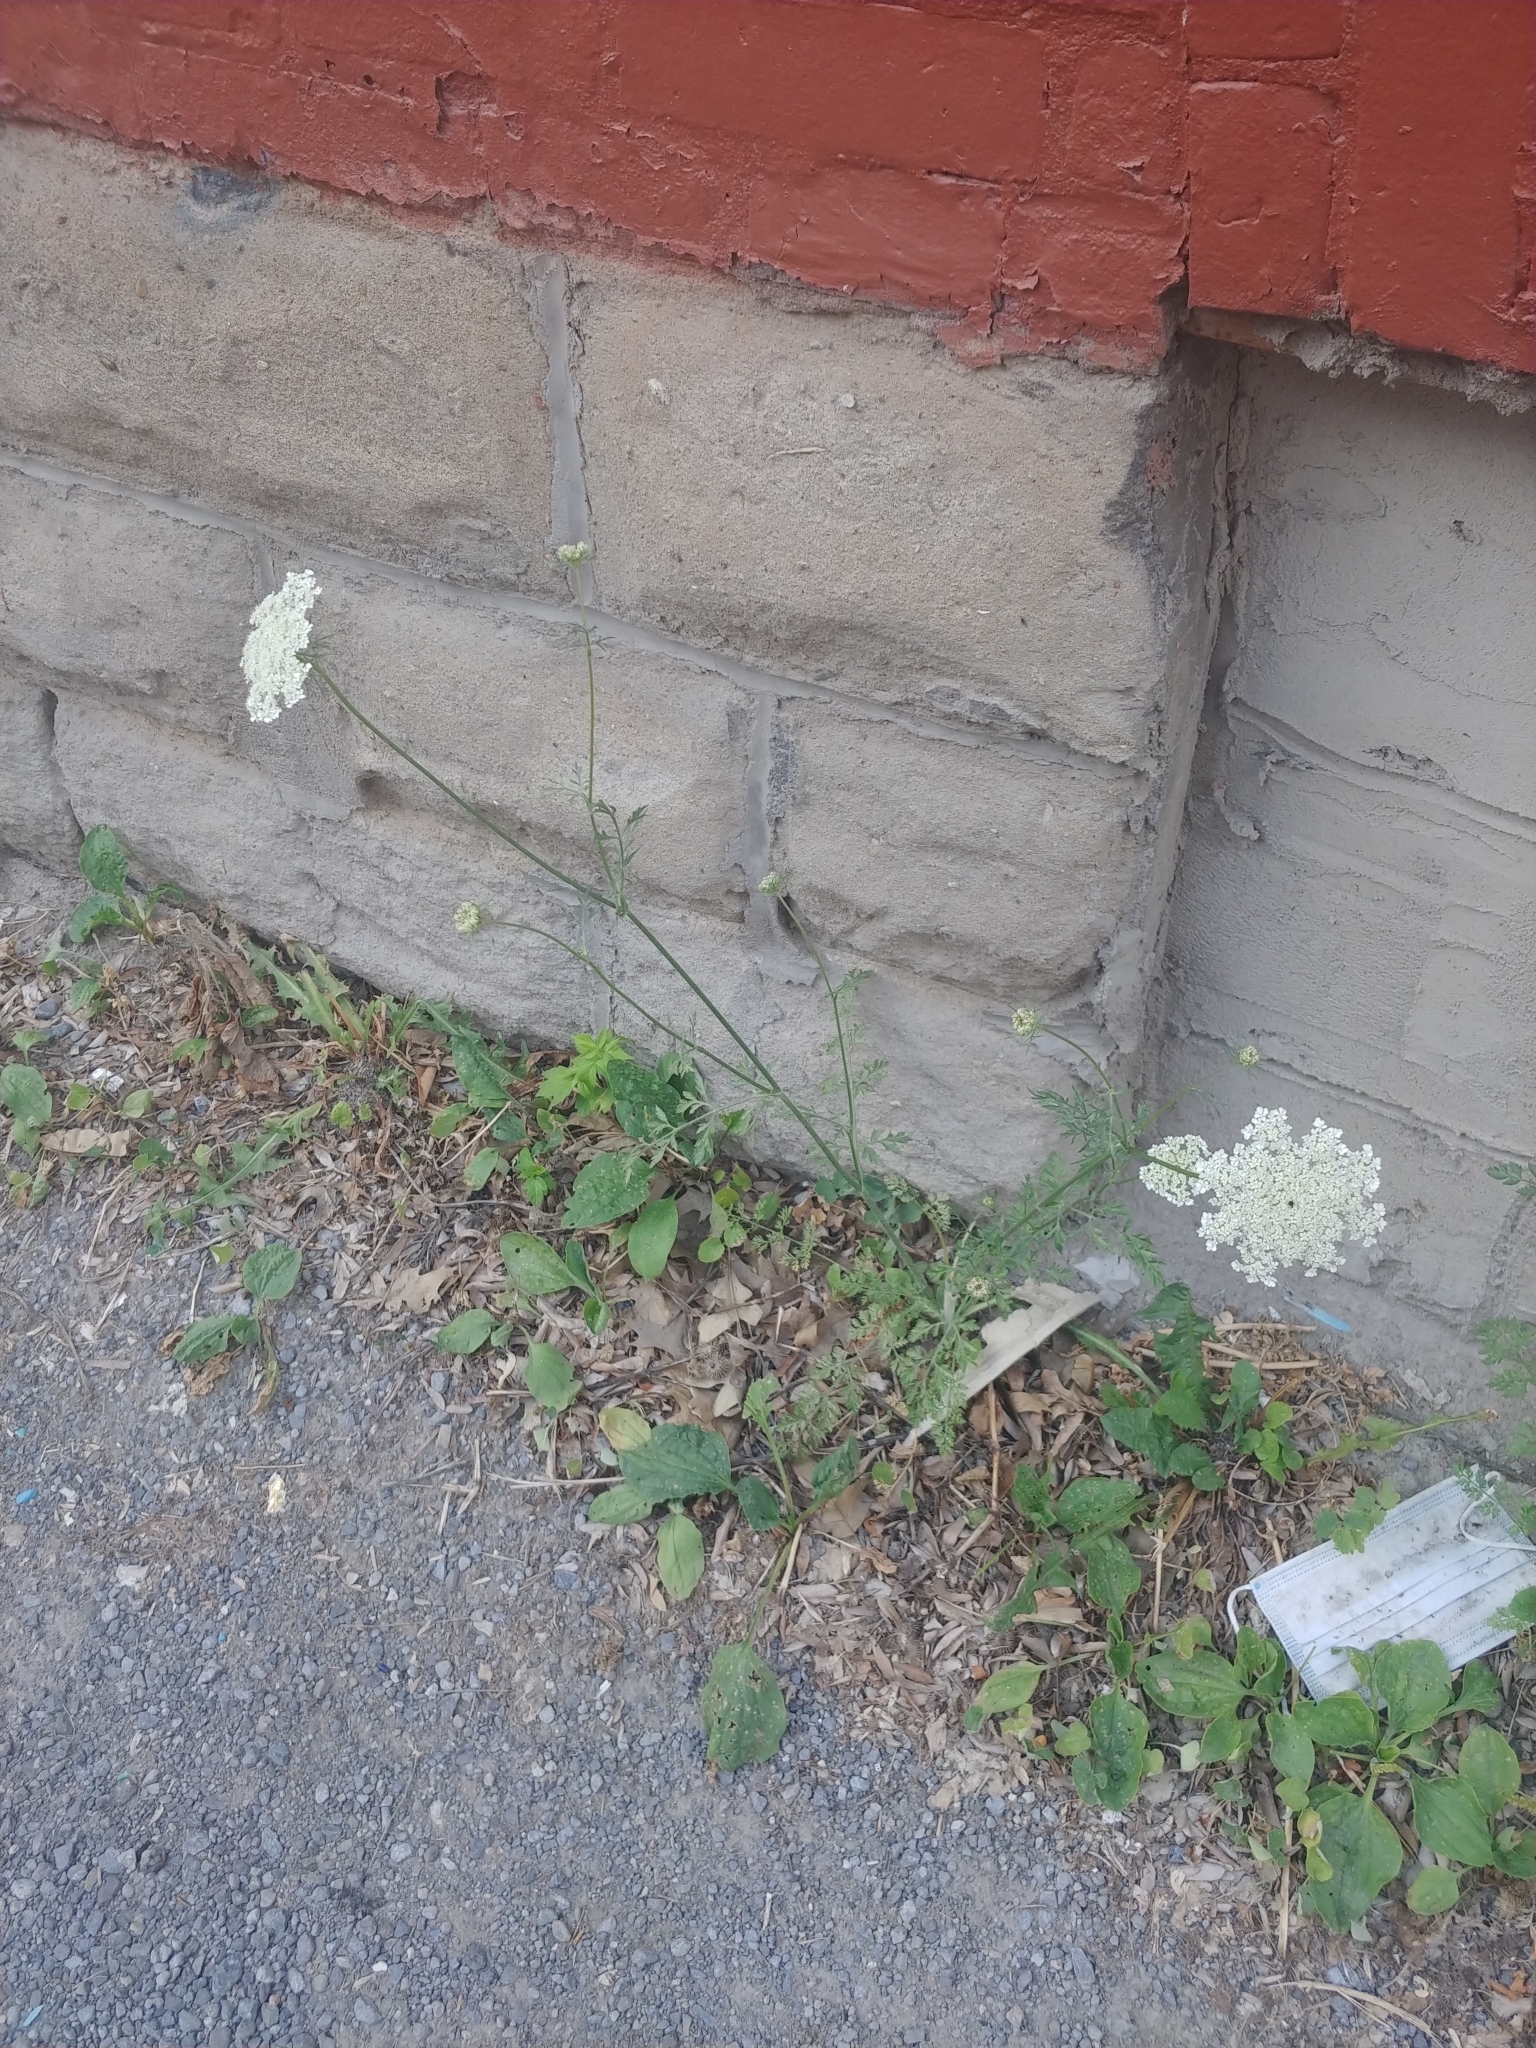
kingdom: Plantae
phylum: Tracheophyta
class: Magnoliopsida
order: Apiales
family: Apiaceae
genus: Daucus
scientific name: Daucus carota
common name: Wild carrot
